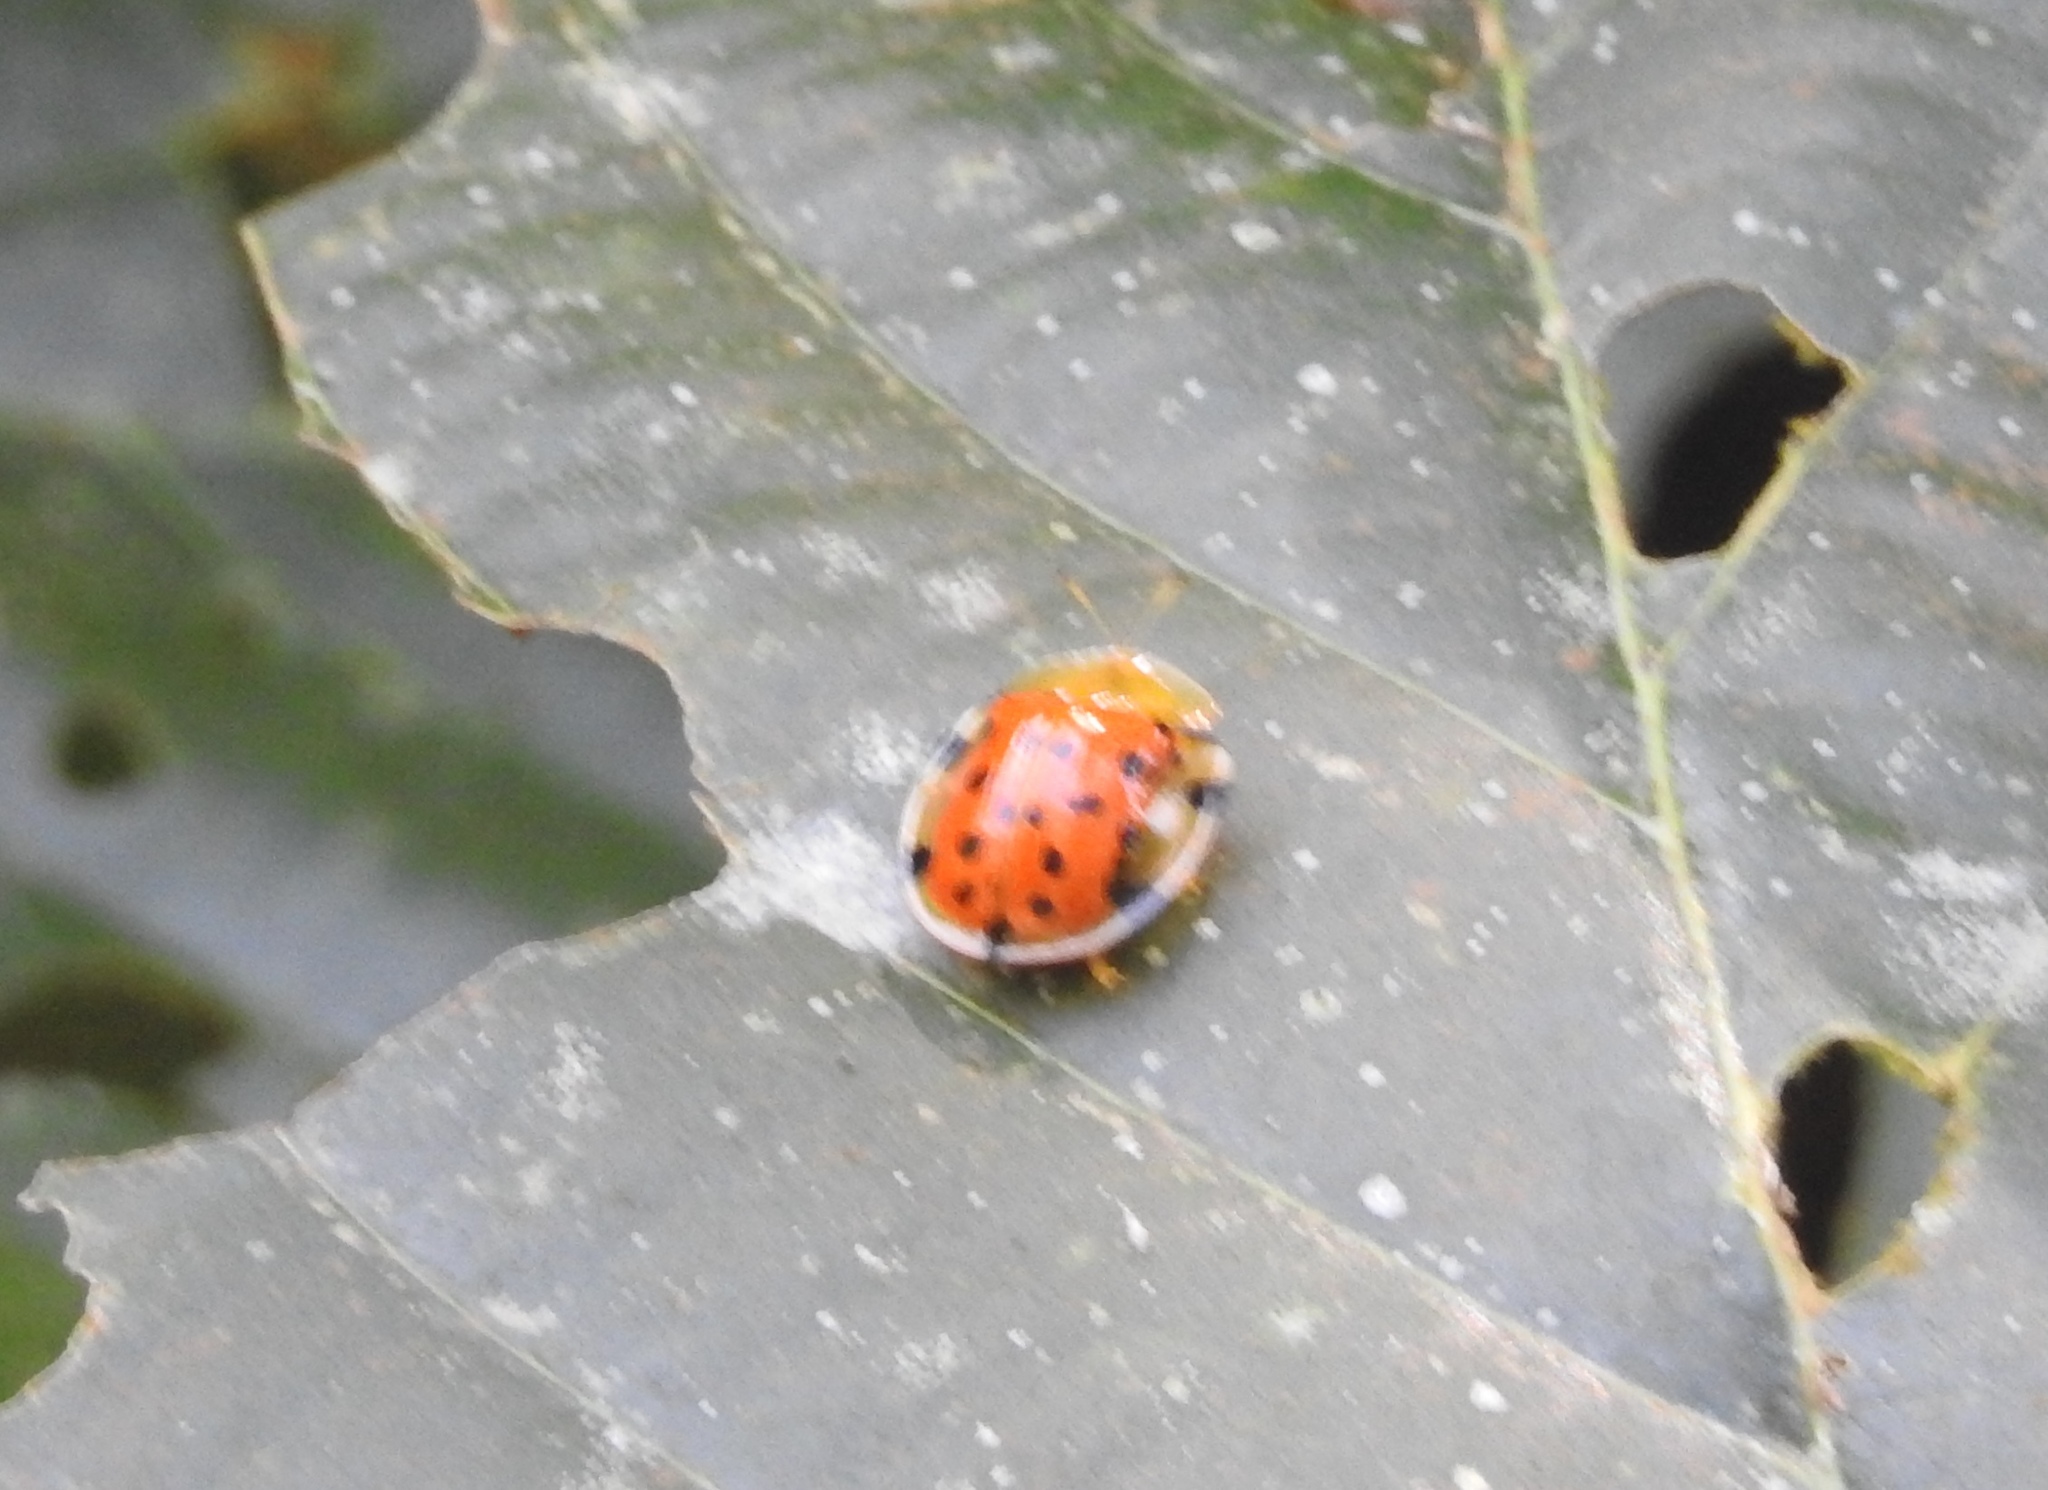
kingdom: Animalia
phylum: Arthropoda
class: Insecta
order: Coleoptera
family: Chrysomelidae
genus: Aspidimorpha
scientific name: Aspidimorpha miliaris
